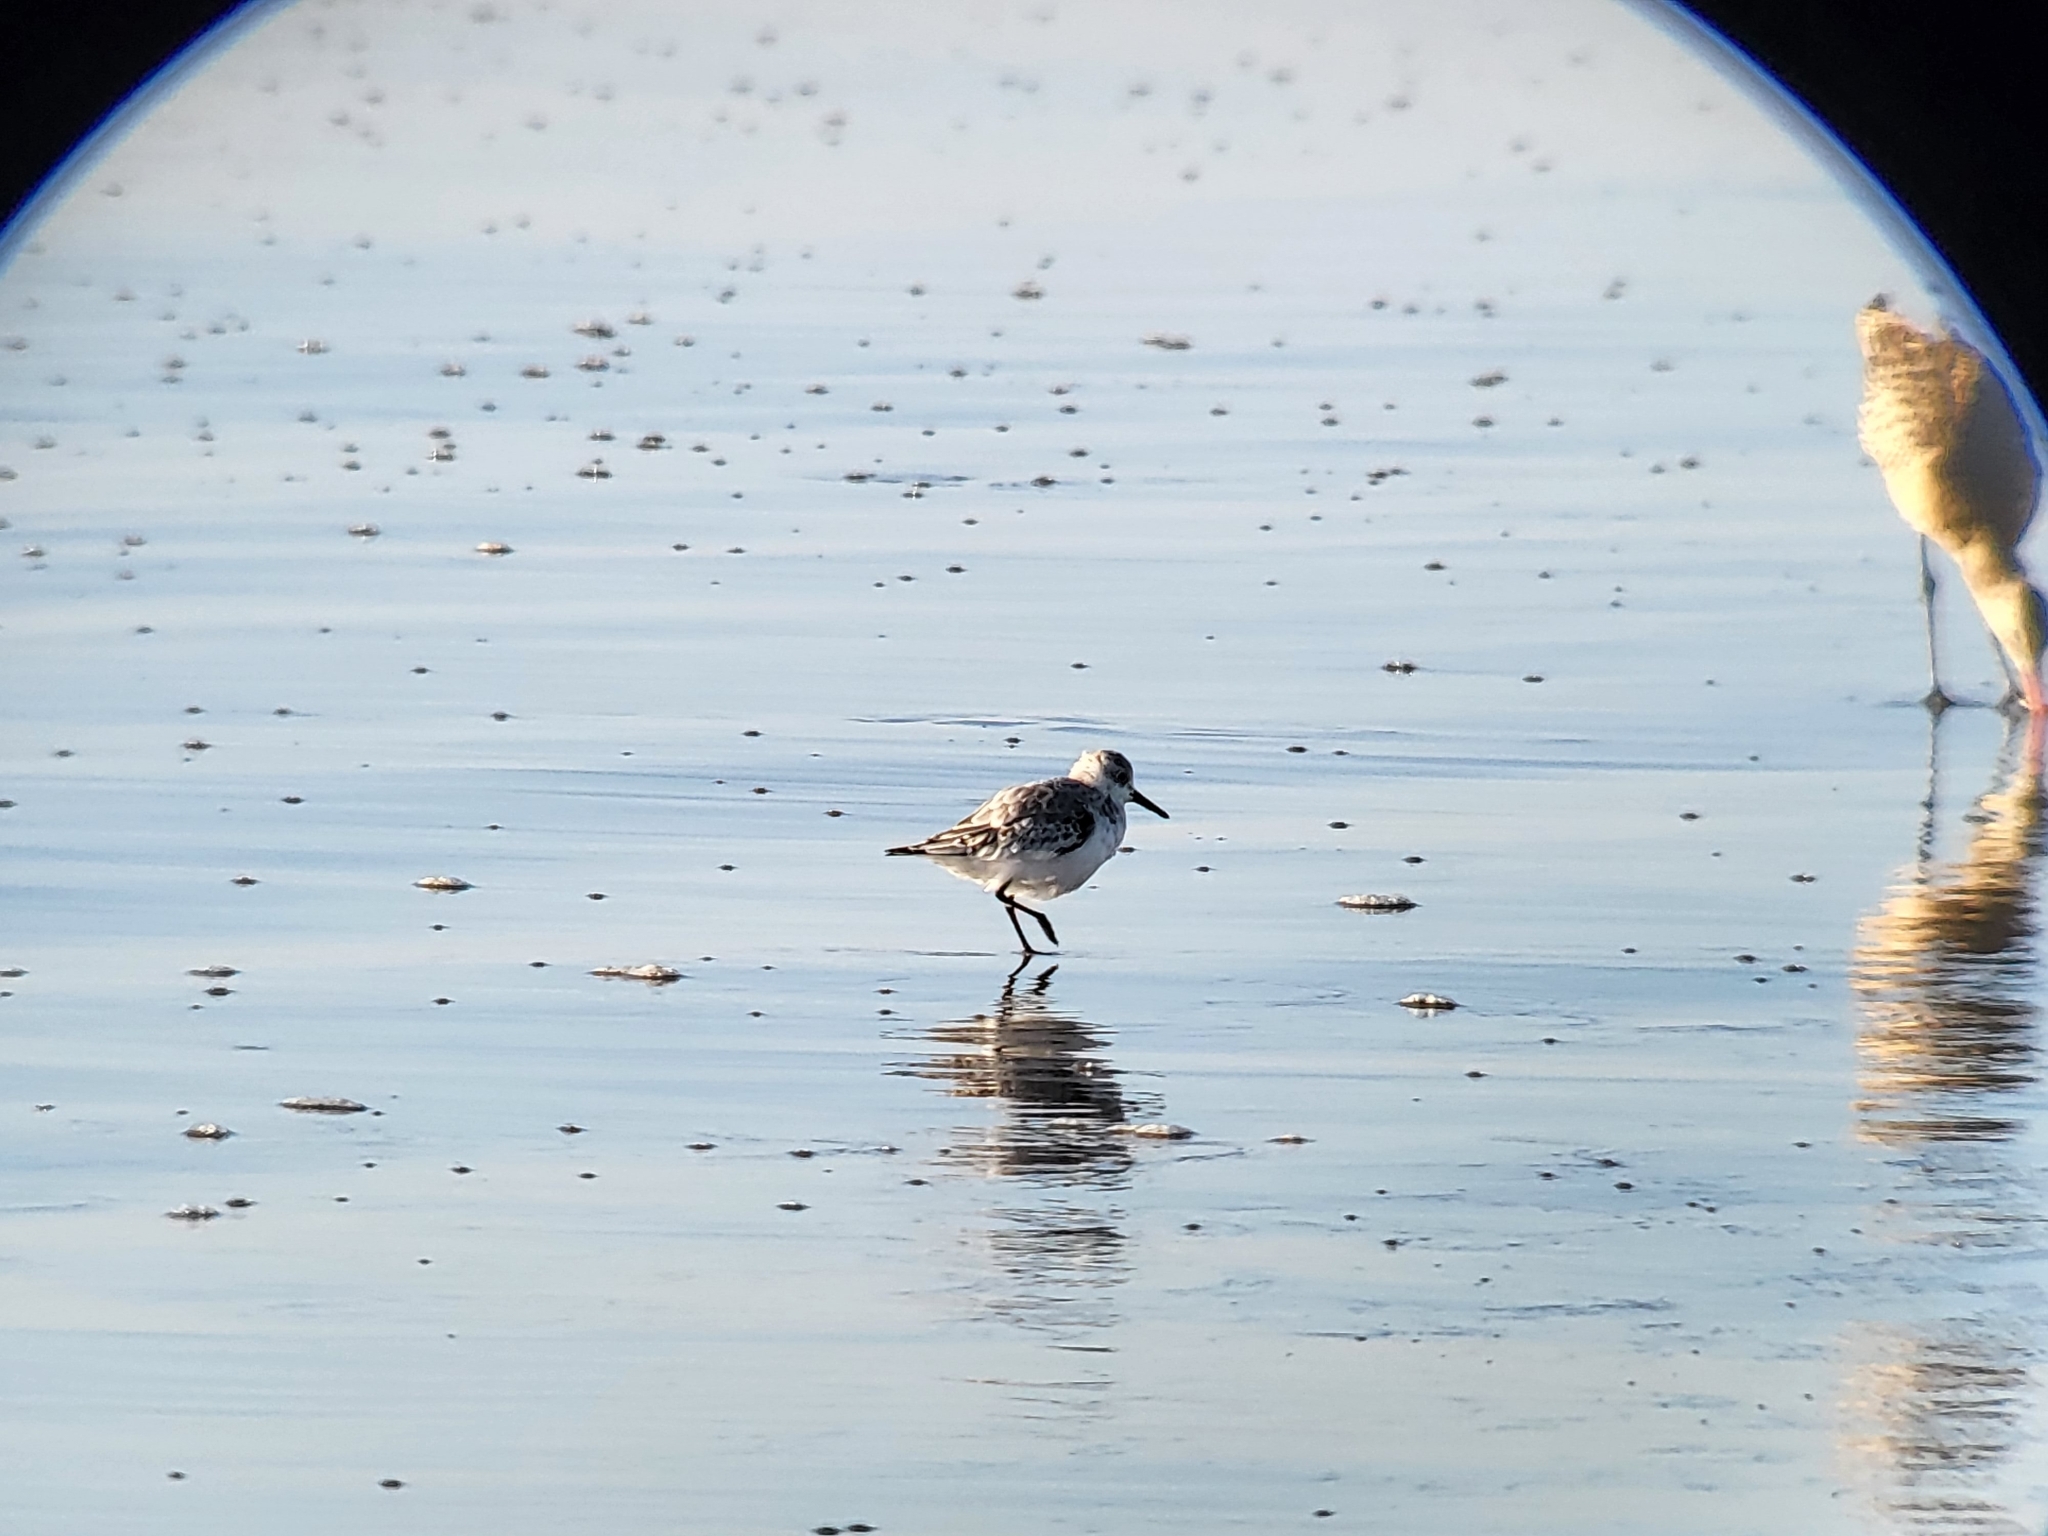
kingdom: Animalia
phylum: Chordata
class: Aves
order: Charadriiformes
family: Scolopacidae
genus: Calidris
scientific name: Calidris alba
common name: Sanderling
